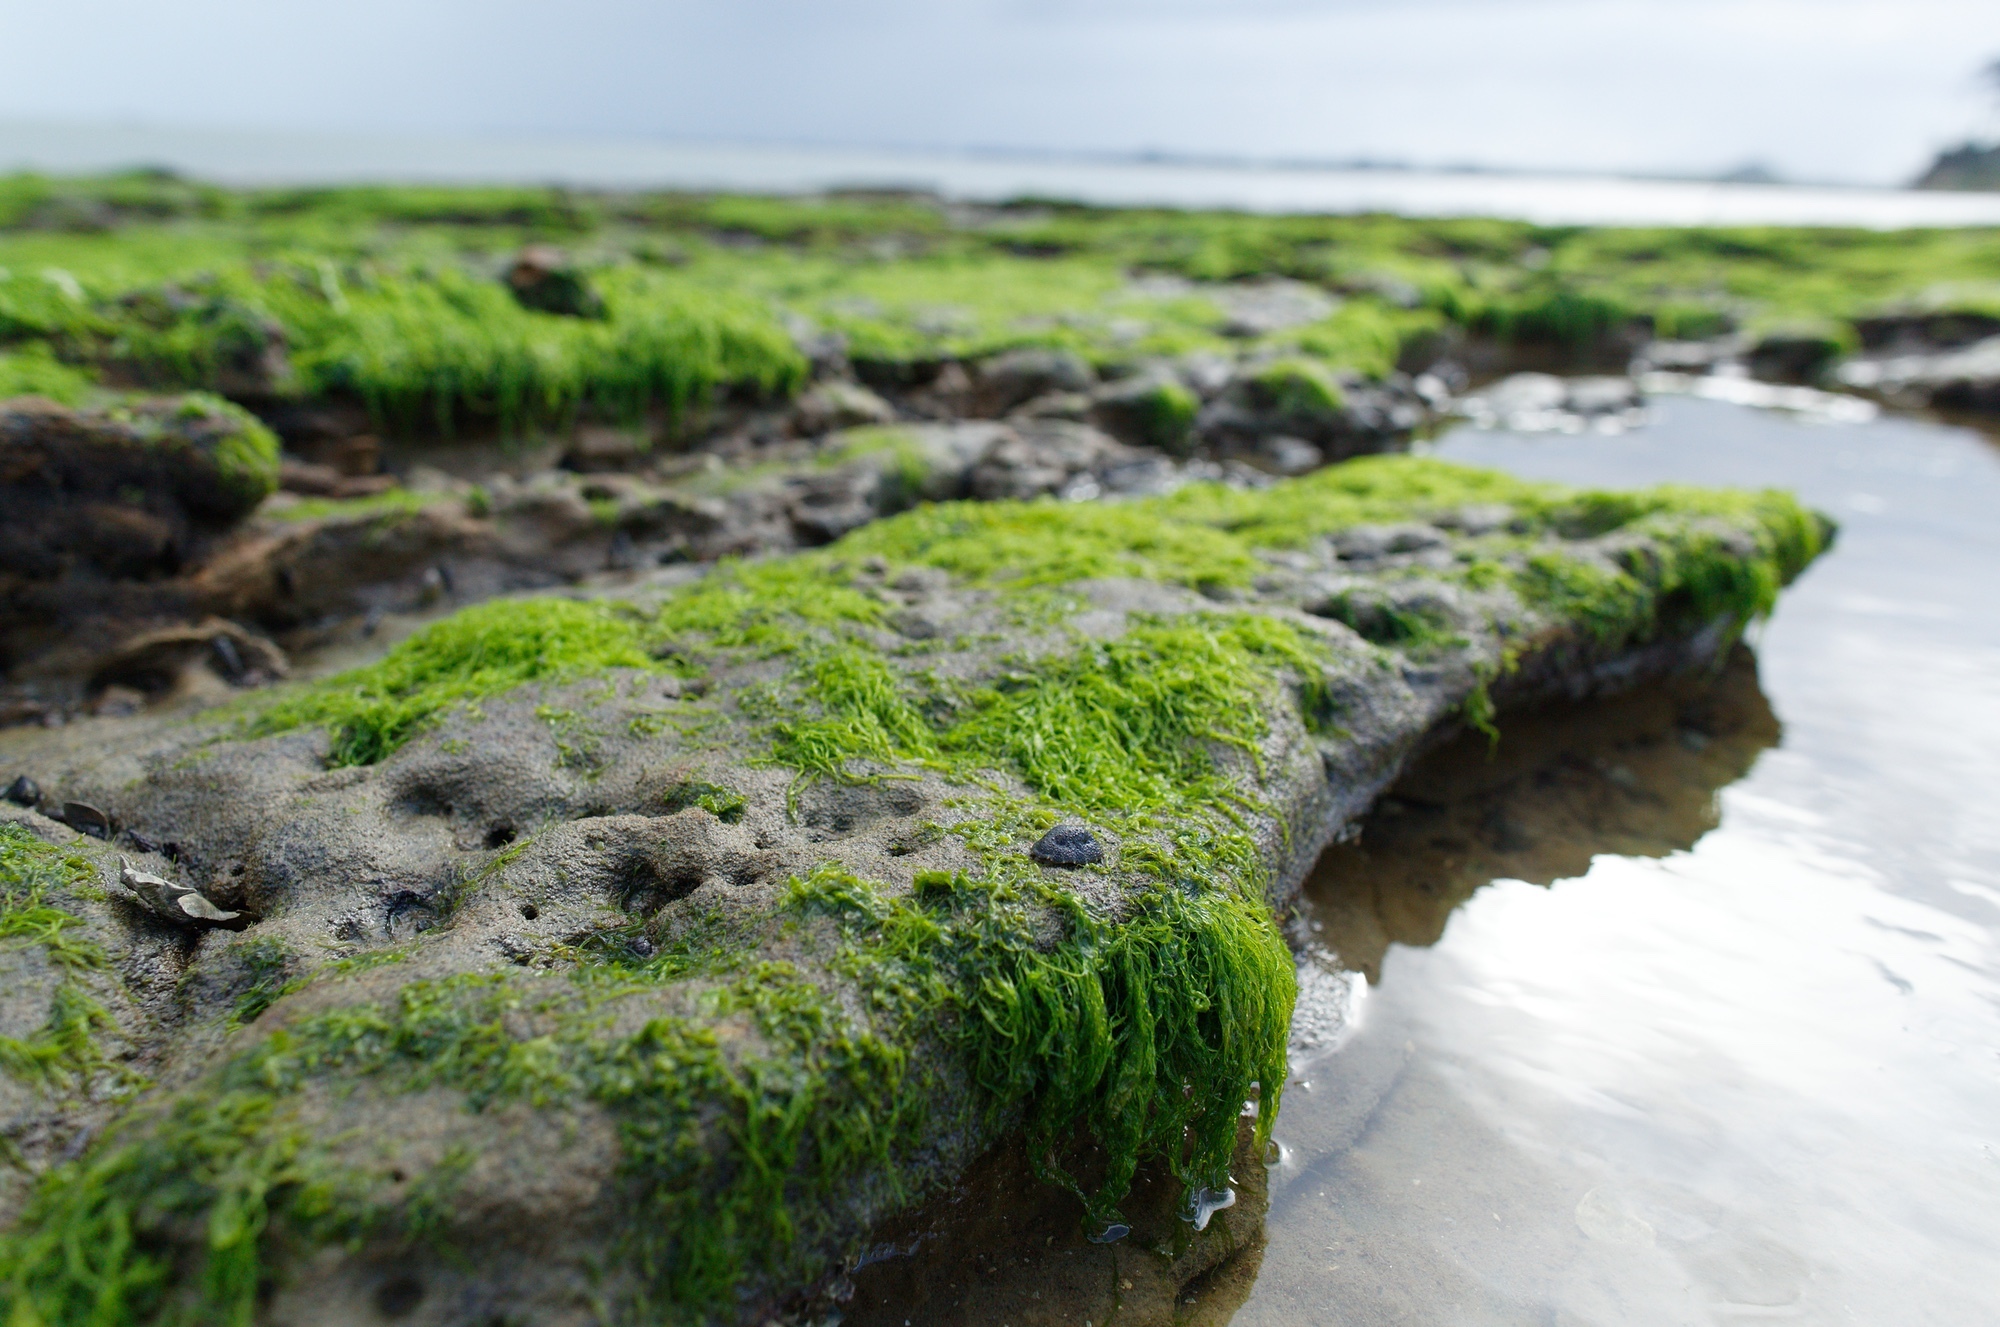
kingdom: Animalia
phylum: Mollusca
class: Gastropoda
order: Systellommatophora
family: Onchidiidae
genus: Onchidella
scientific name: Onchidella nigricans
